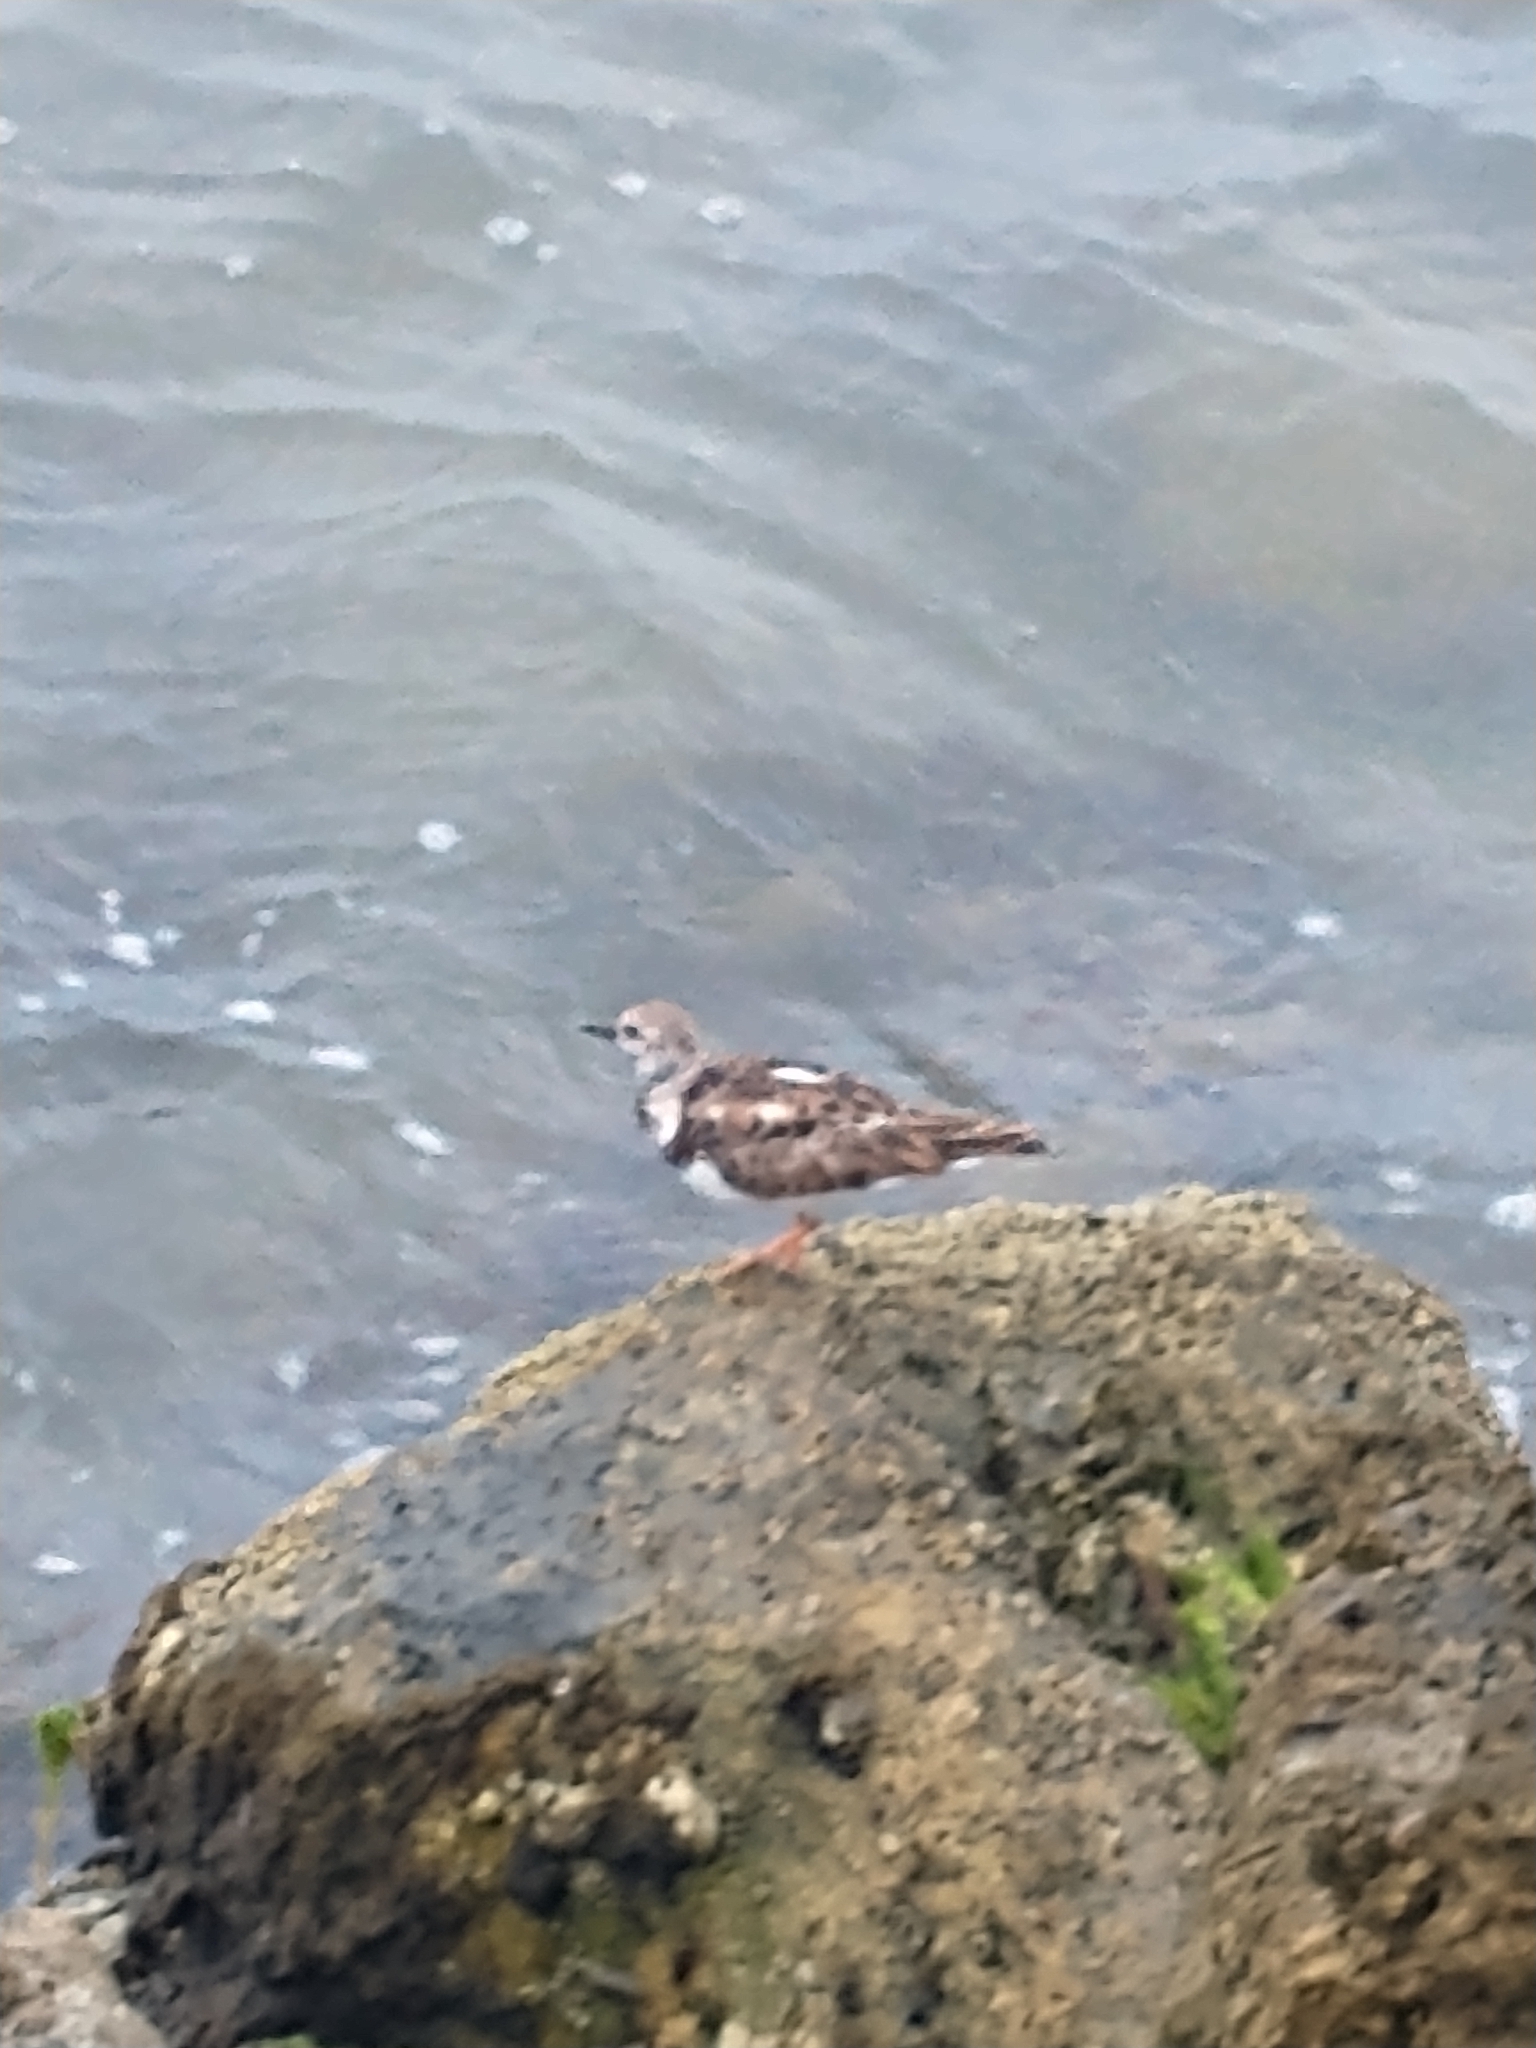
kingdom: Animalia
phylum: Chordata
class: Aves
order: Charadriiformes
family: Scolopacidae
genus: Arenaria
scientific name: Arenaria interpres
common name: Ruddy turnstone
